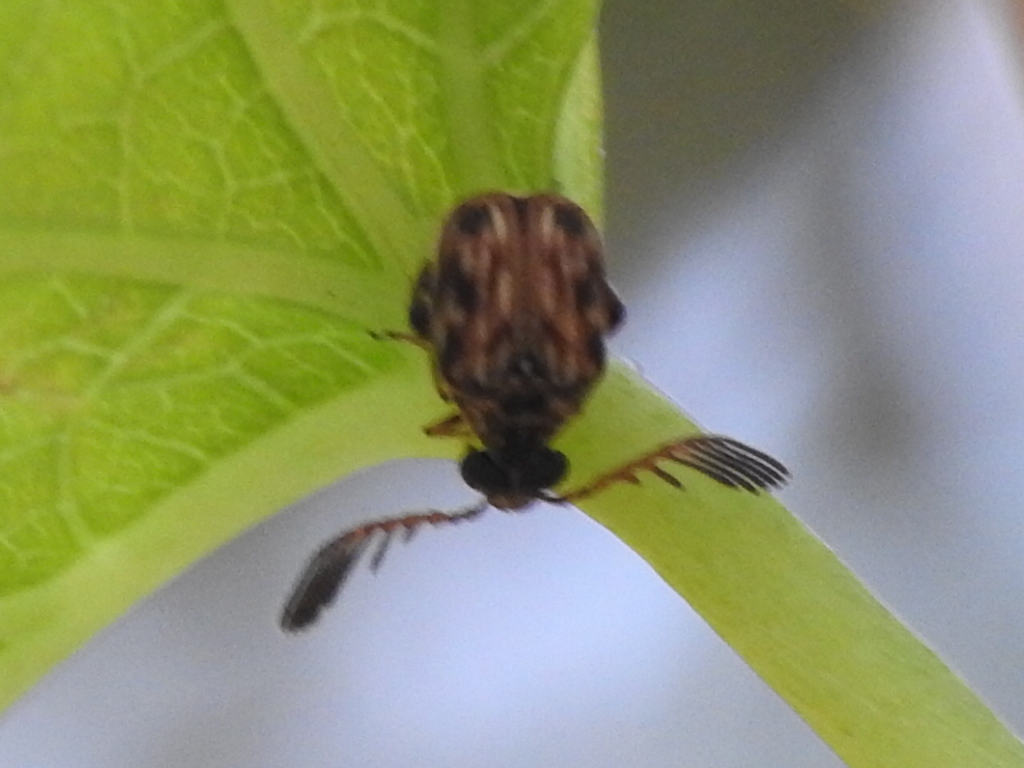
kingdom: Animalia
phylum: Arthropoda
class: Insecta
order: Coleoptera
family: Chrysomelidae
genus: Megacerus
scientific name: Megacerus cubiculus
